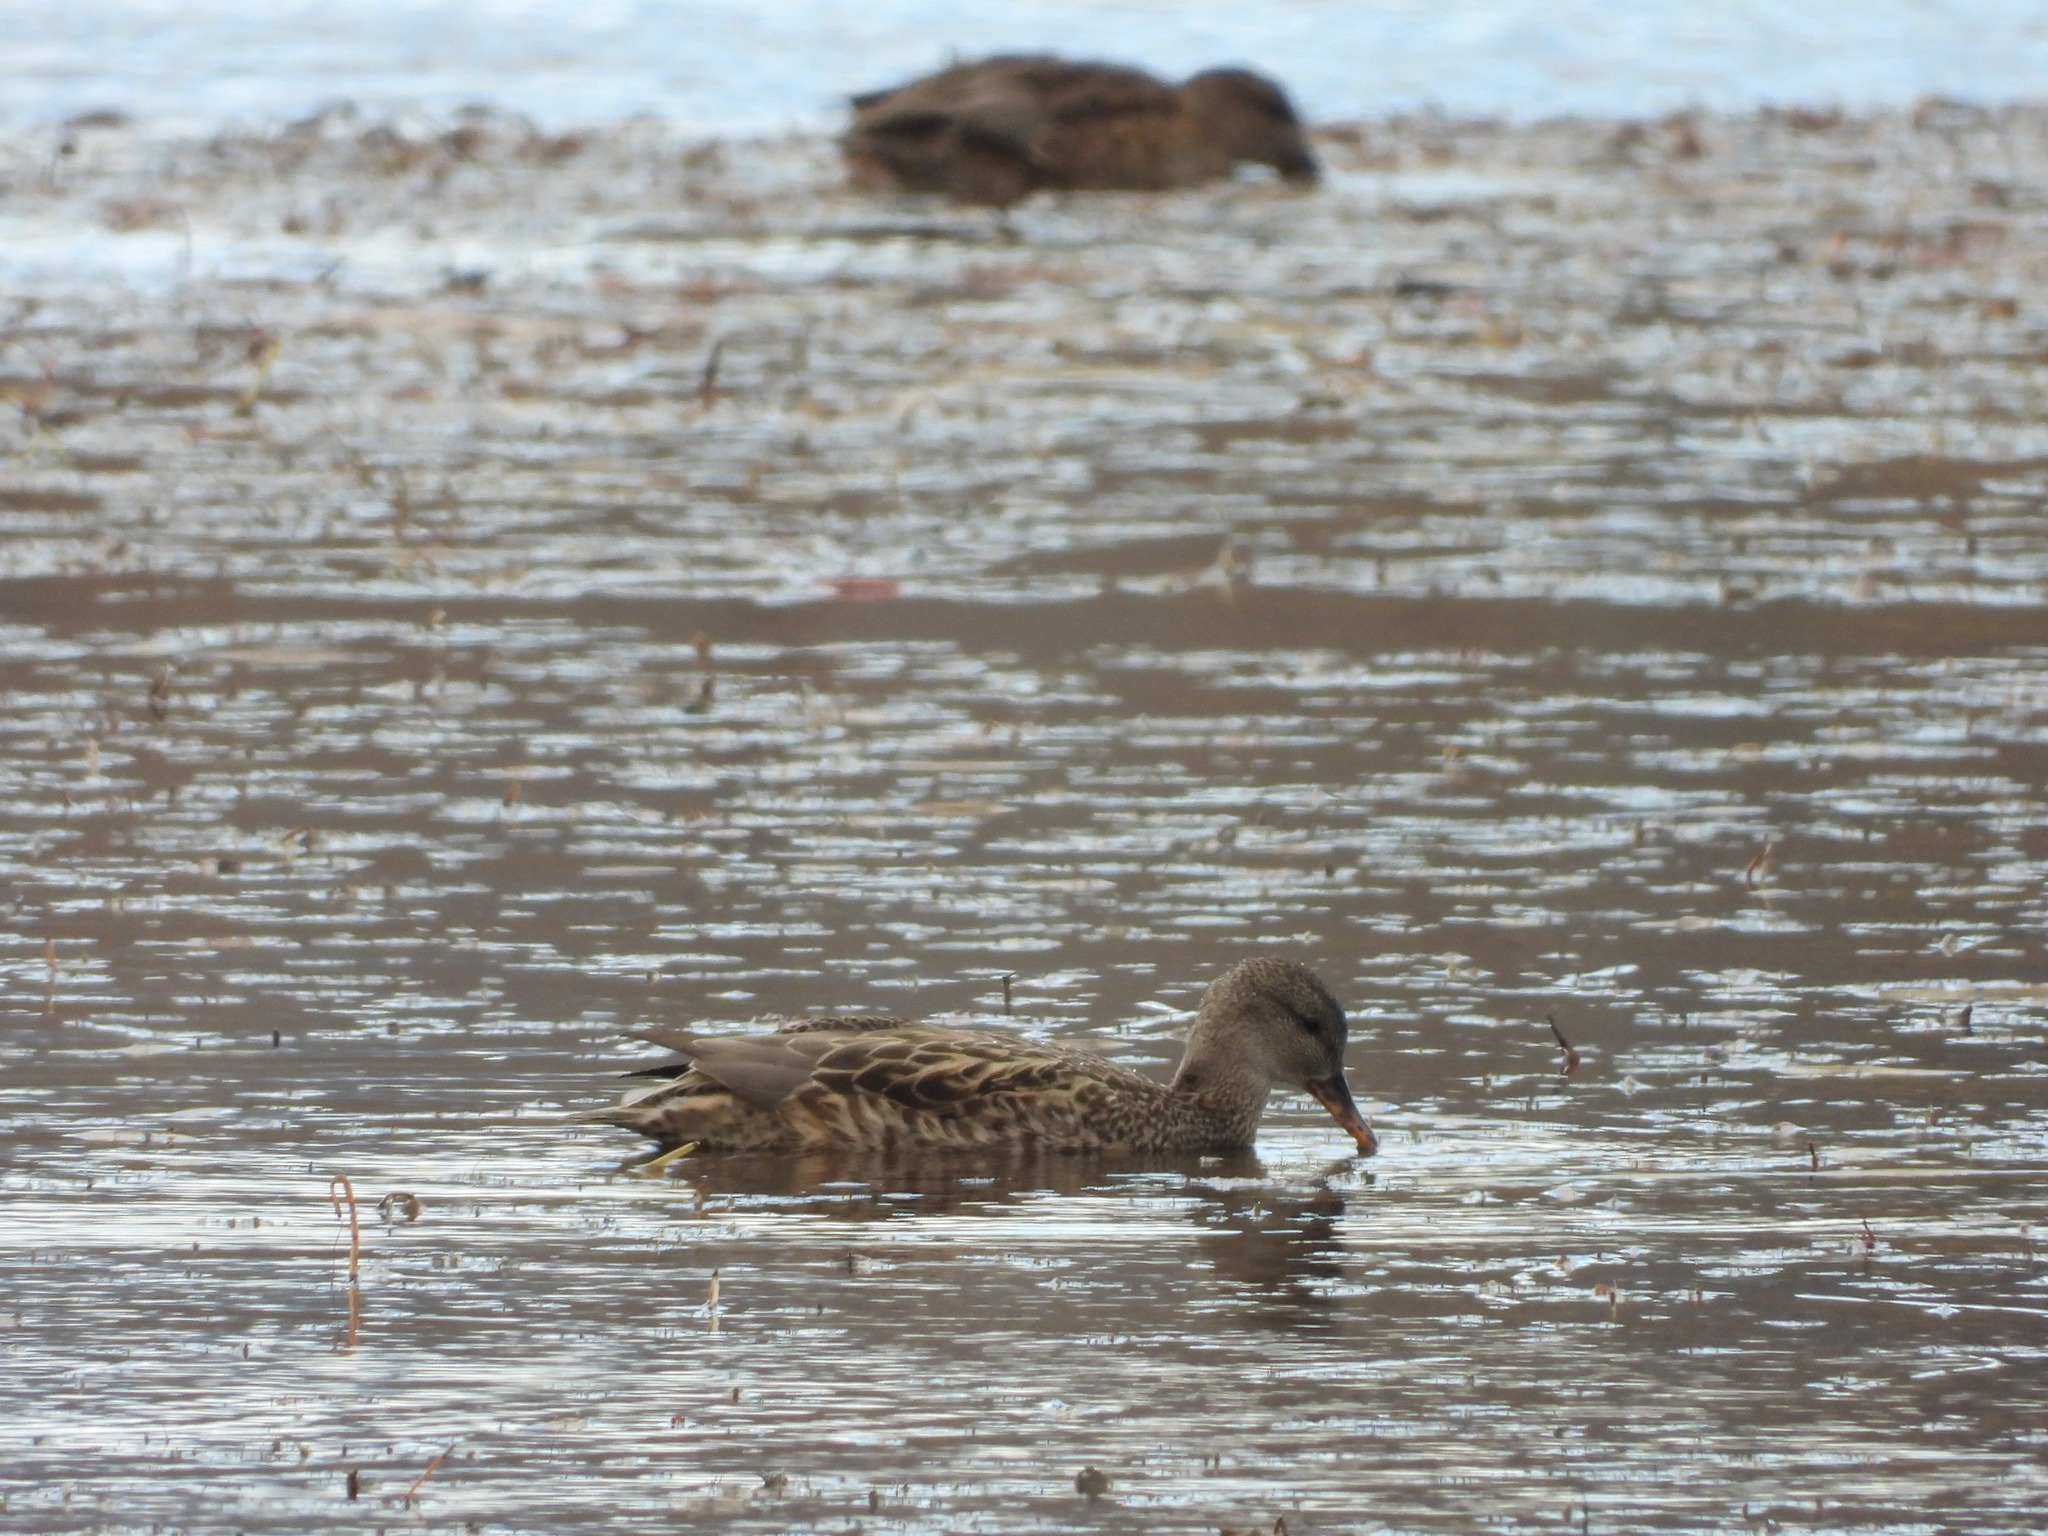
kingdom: Animalia
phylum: Chordata
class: Aves
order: Anseriformes
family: Anatidae
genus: Anas
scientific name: Anas platyrhynchos
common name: Mallard
